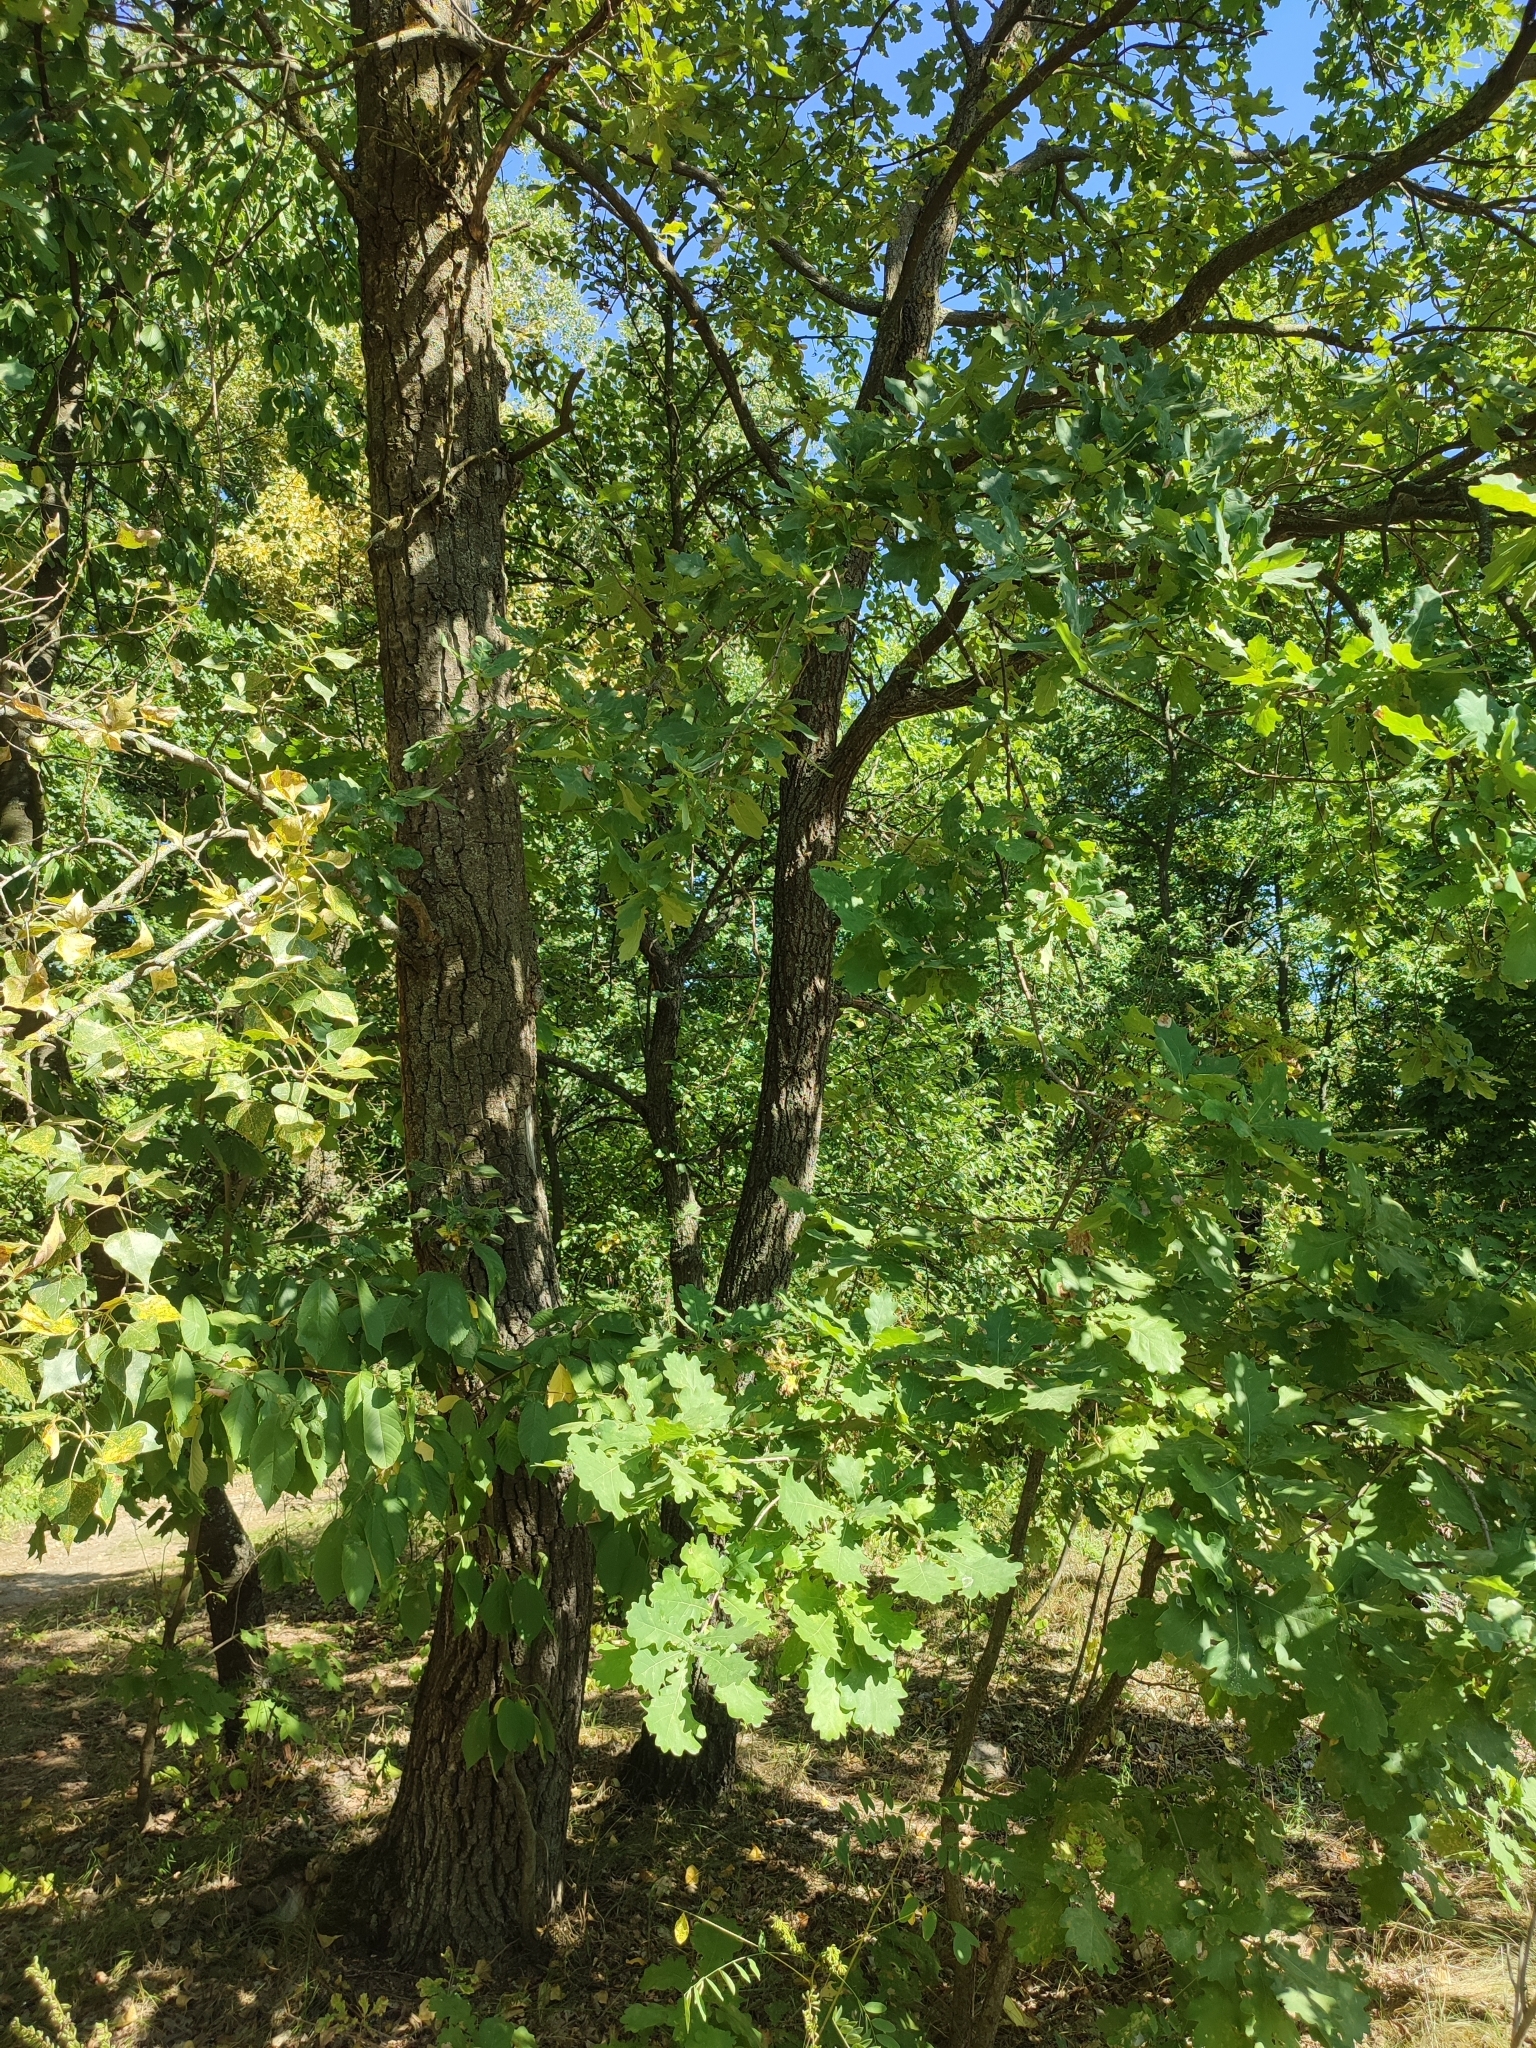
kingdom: Plantae
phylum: Tracheophyta
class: Magnoliopsida
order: Fagales
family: Fagaceae
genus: Quercus
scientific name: Quercus robur
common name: Pedunculate oak
